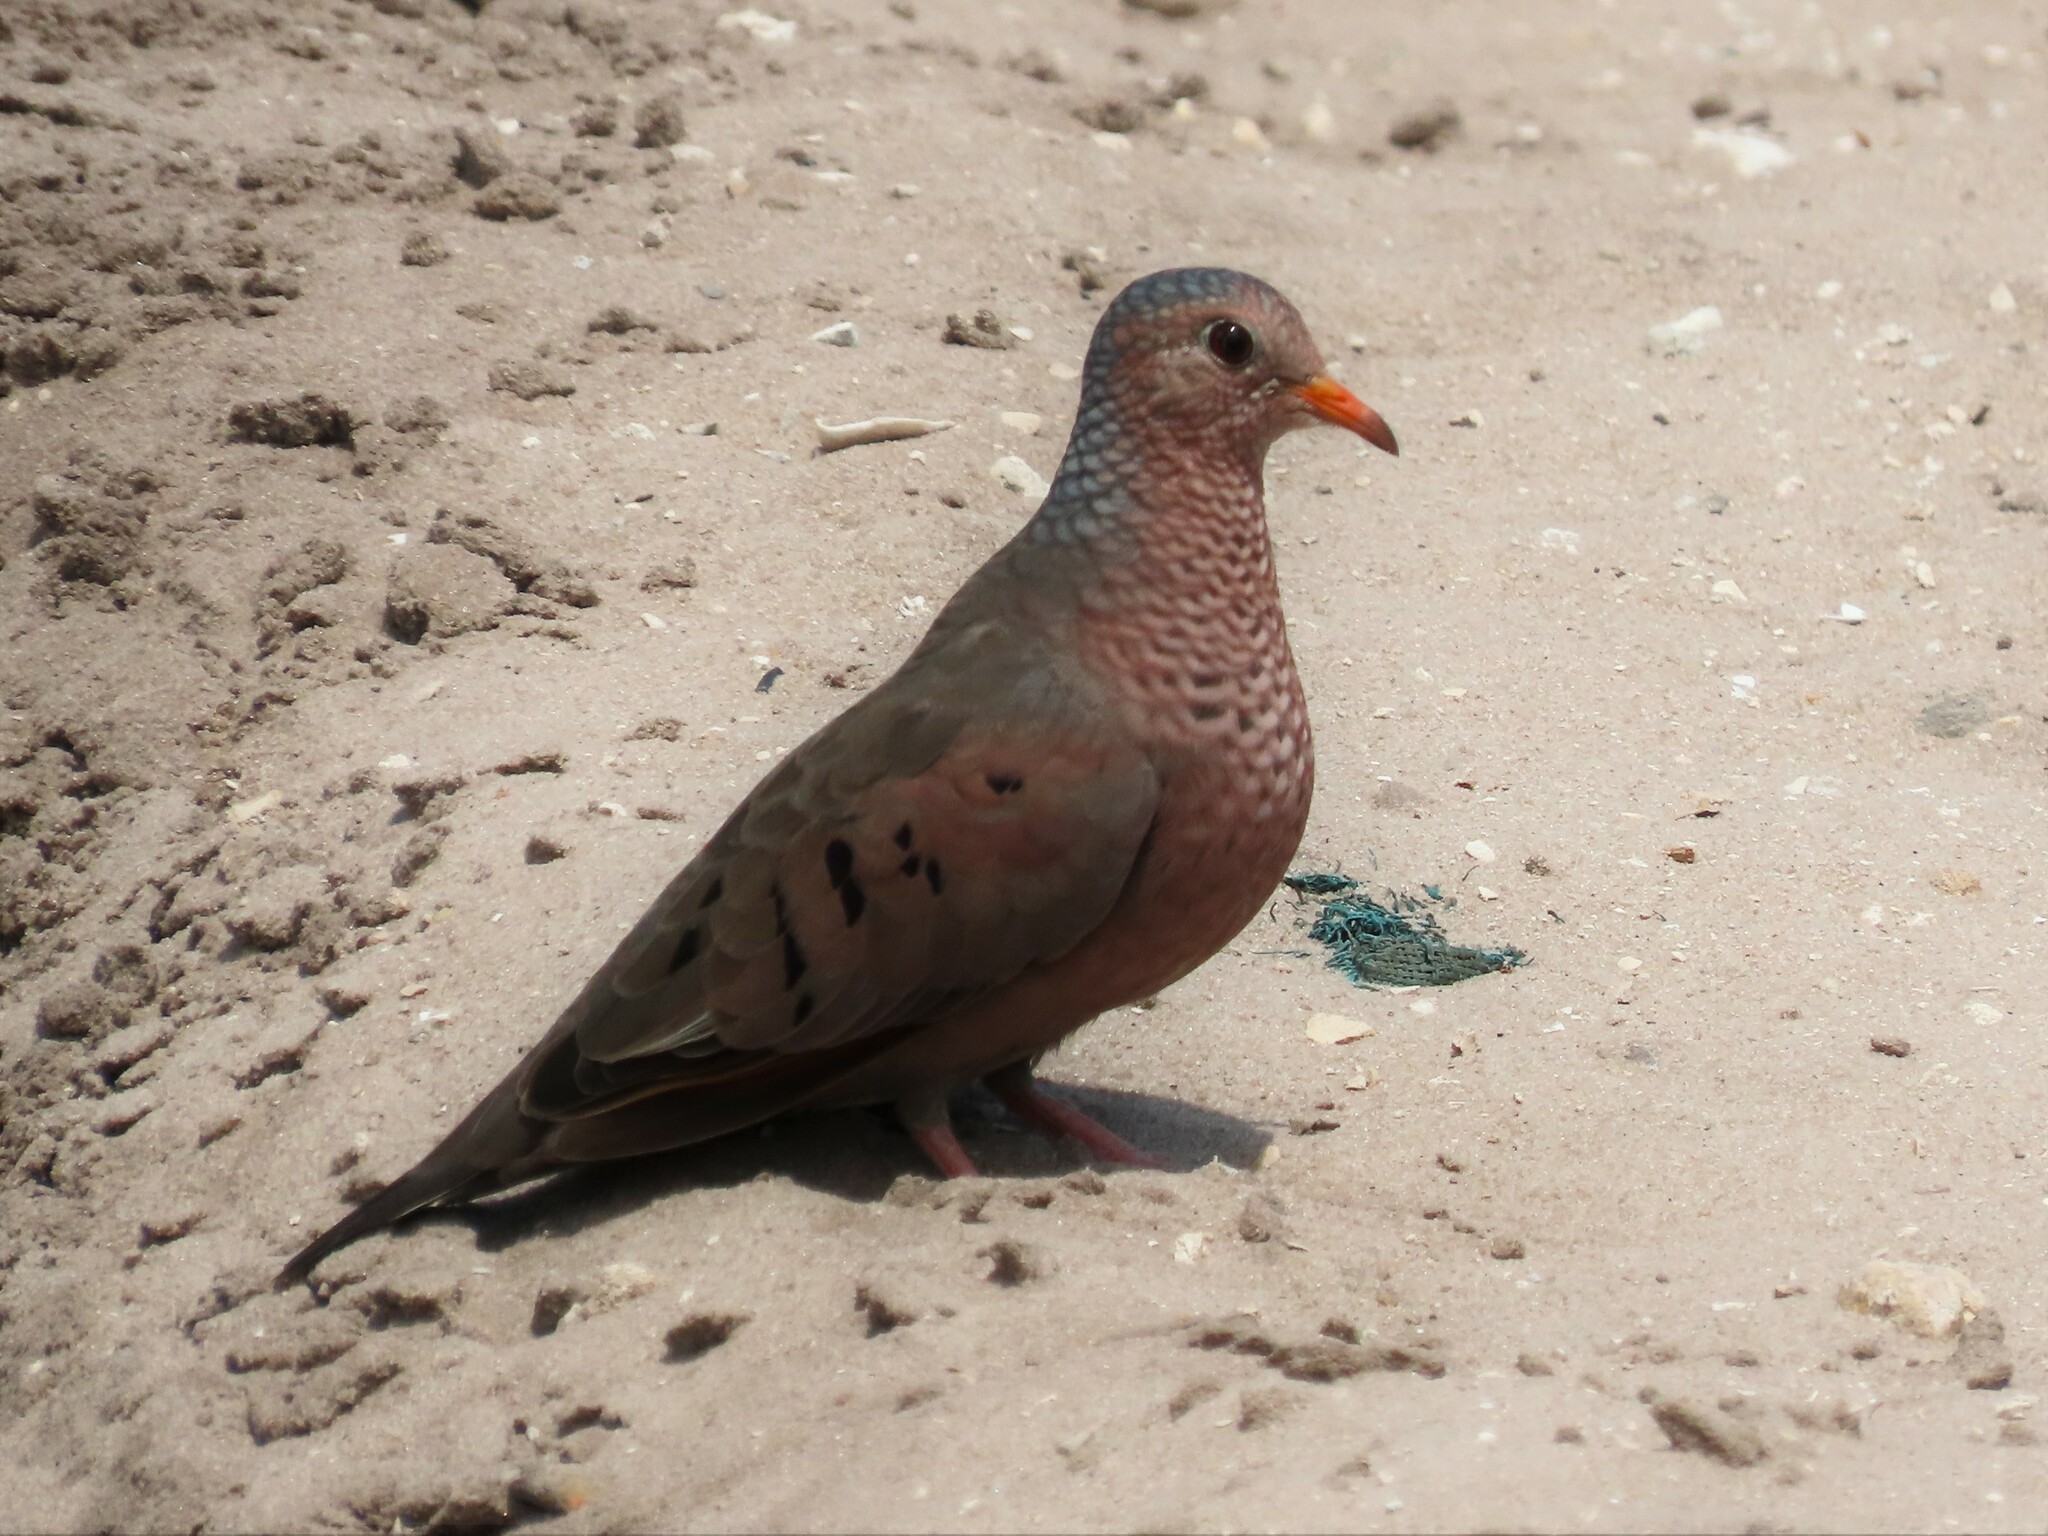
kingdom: Animalia
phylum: Chordata
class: Aves
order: Columbiformes
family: Columbidae
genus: Columbina
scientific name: Columbina passerina
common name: Common ground-dove
